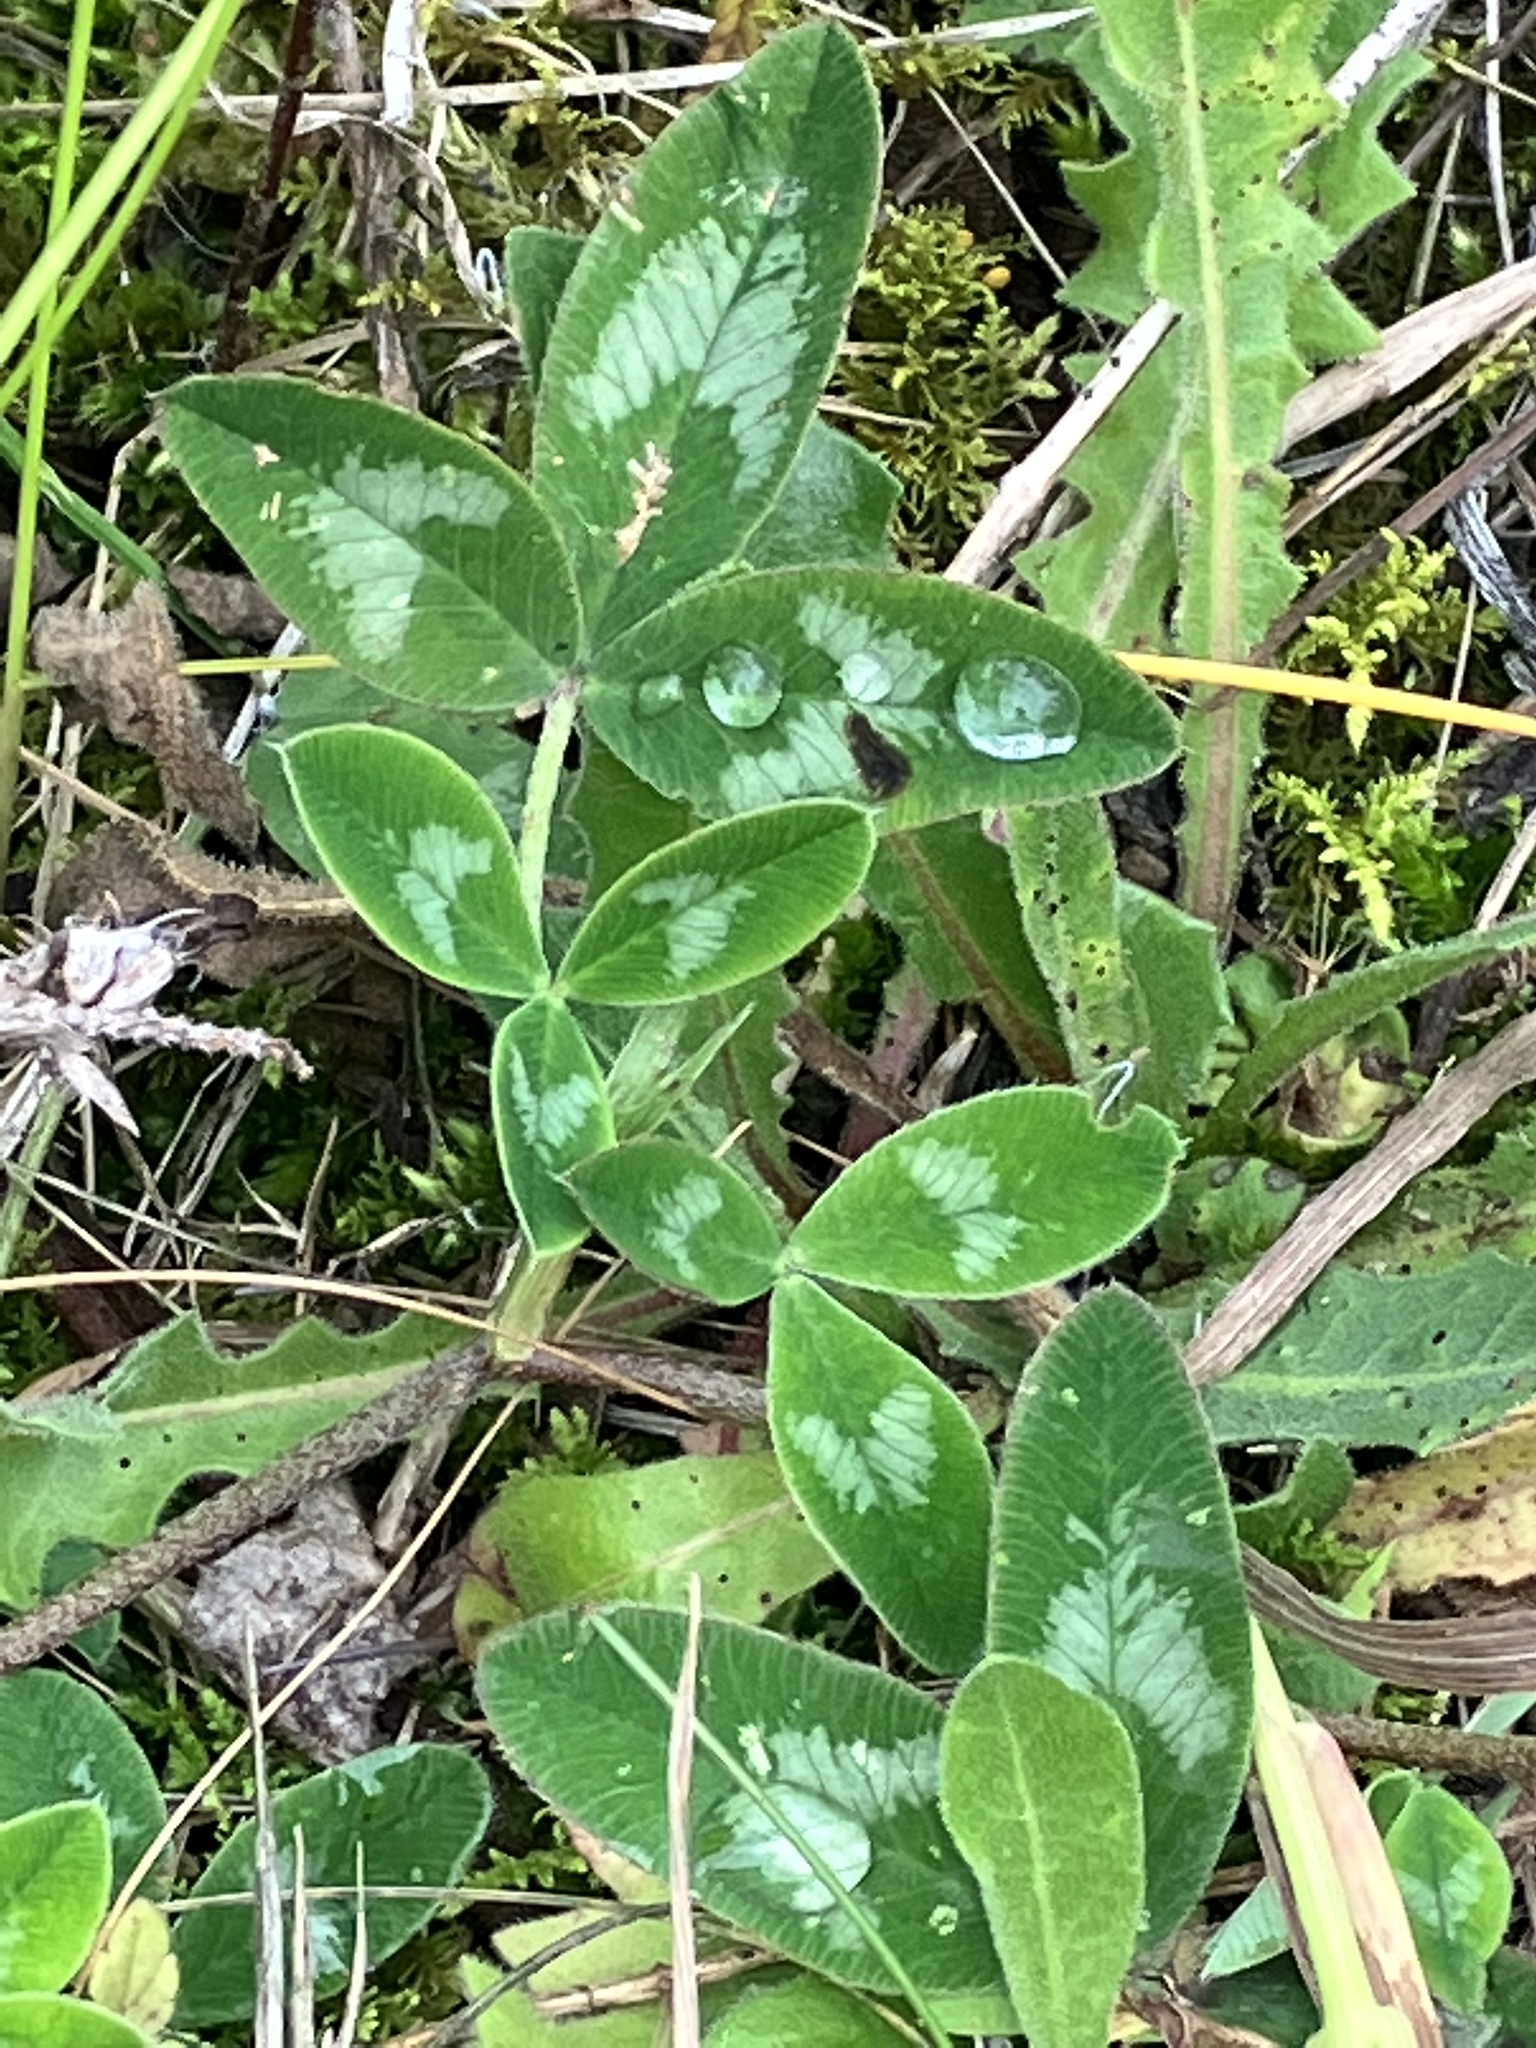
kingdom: Plantae
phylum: Tracheophyta
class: Magnoliopsida
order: Fabales
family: Fabaceae
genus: Trifolium
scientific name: Trifolium medium
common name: Zigzag clover
